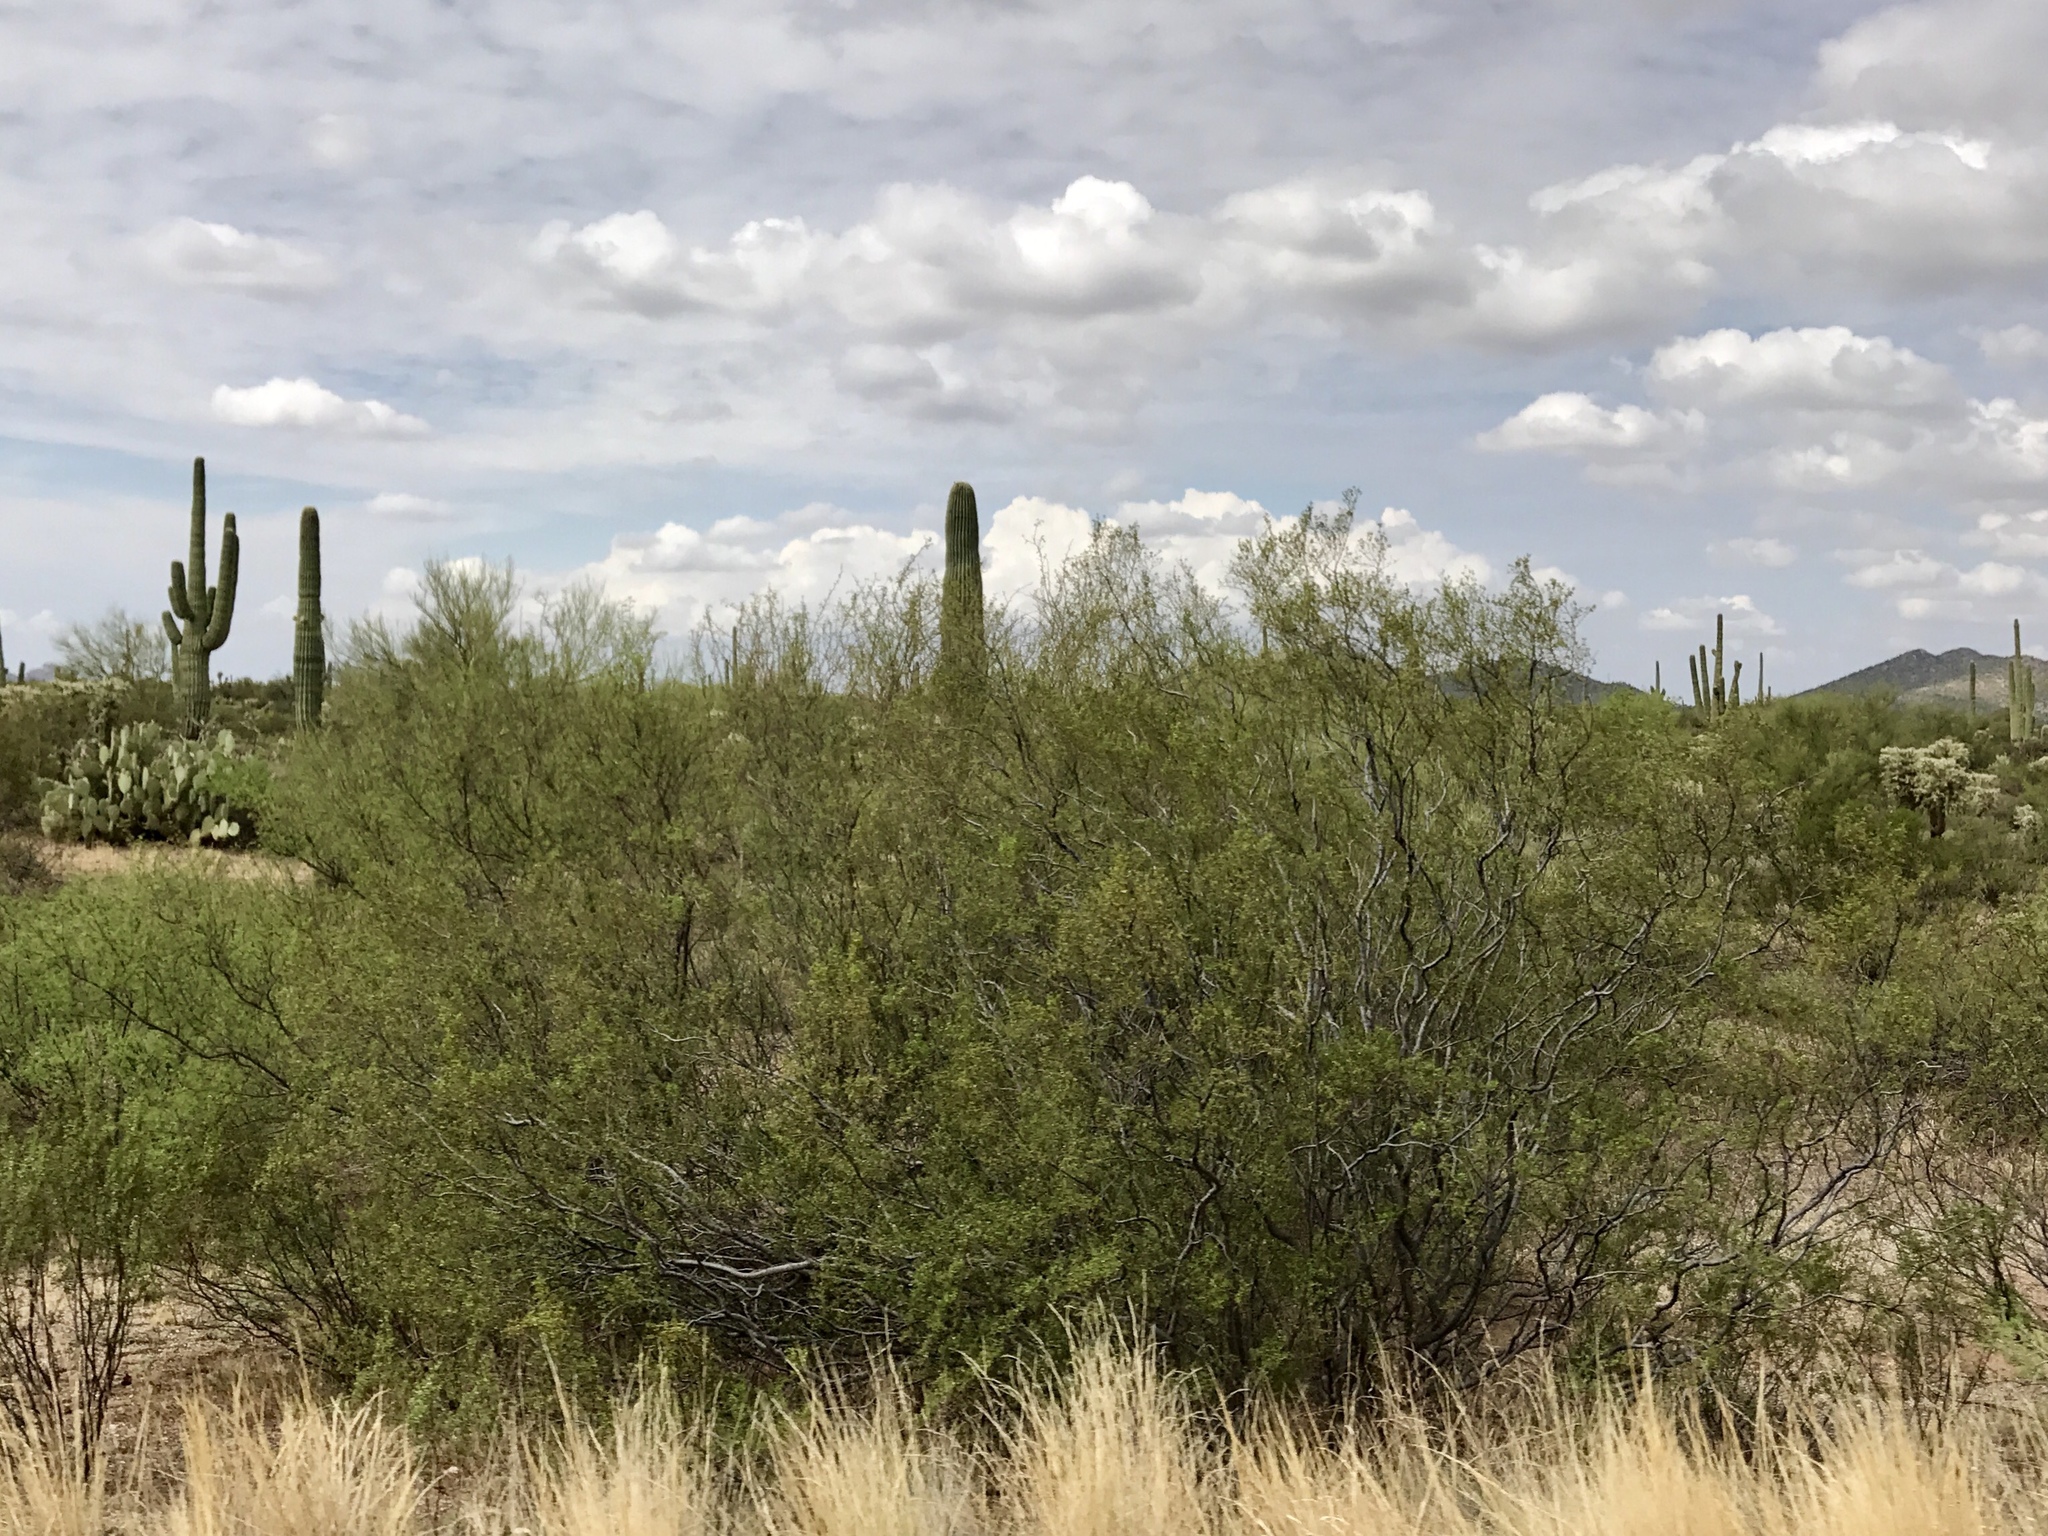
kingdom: Plantae
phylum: Tracheophyta
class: Magnoliopsida
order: Zygophyllales
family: Zygophyllaceae
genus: Larrea
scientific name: Larrea tridentata
